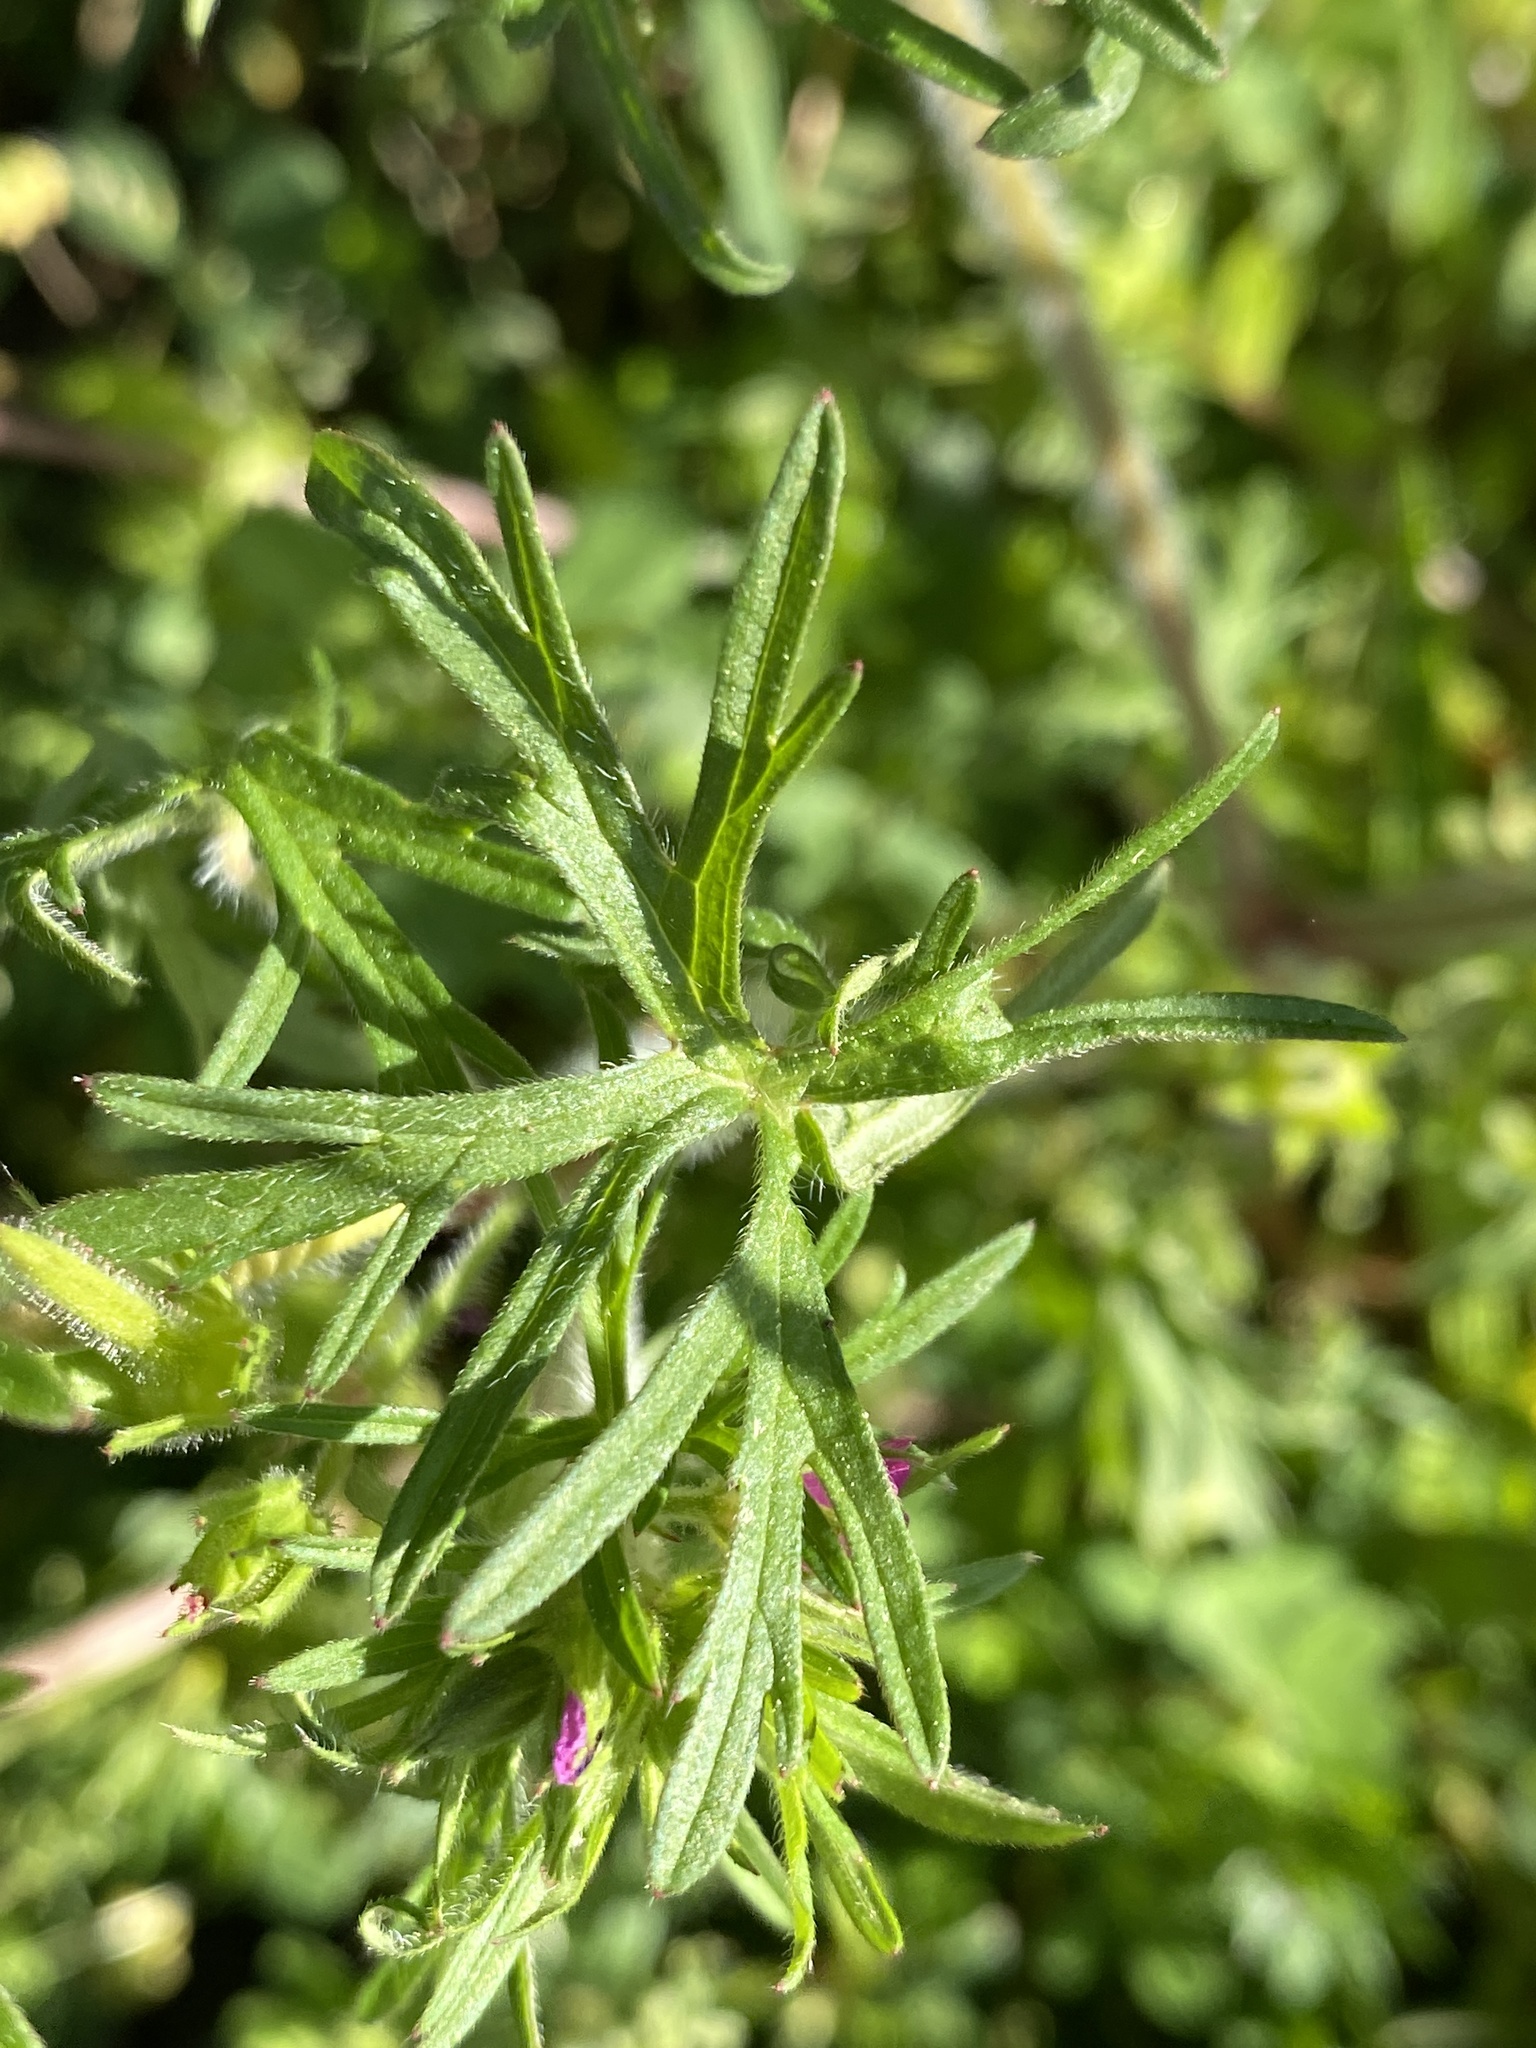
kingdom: Plantae
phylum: Tracheophyta
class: Magnoliopsida
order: Geraniales
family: Geraniaceae
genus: Geranium
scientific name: Geranium dissectum
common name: Cut-leaved crane's-bill
